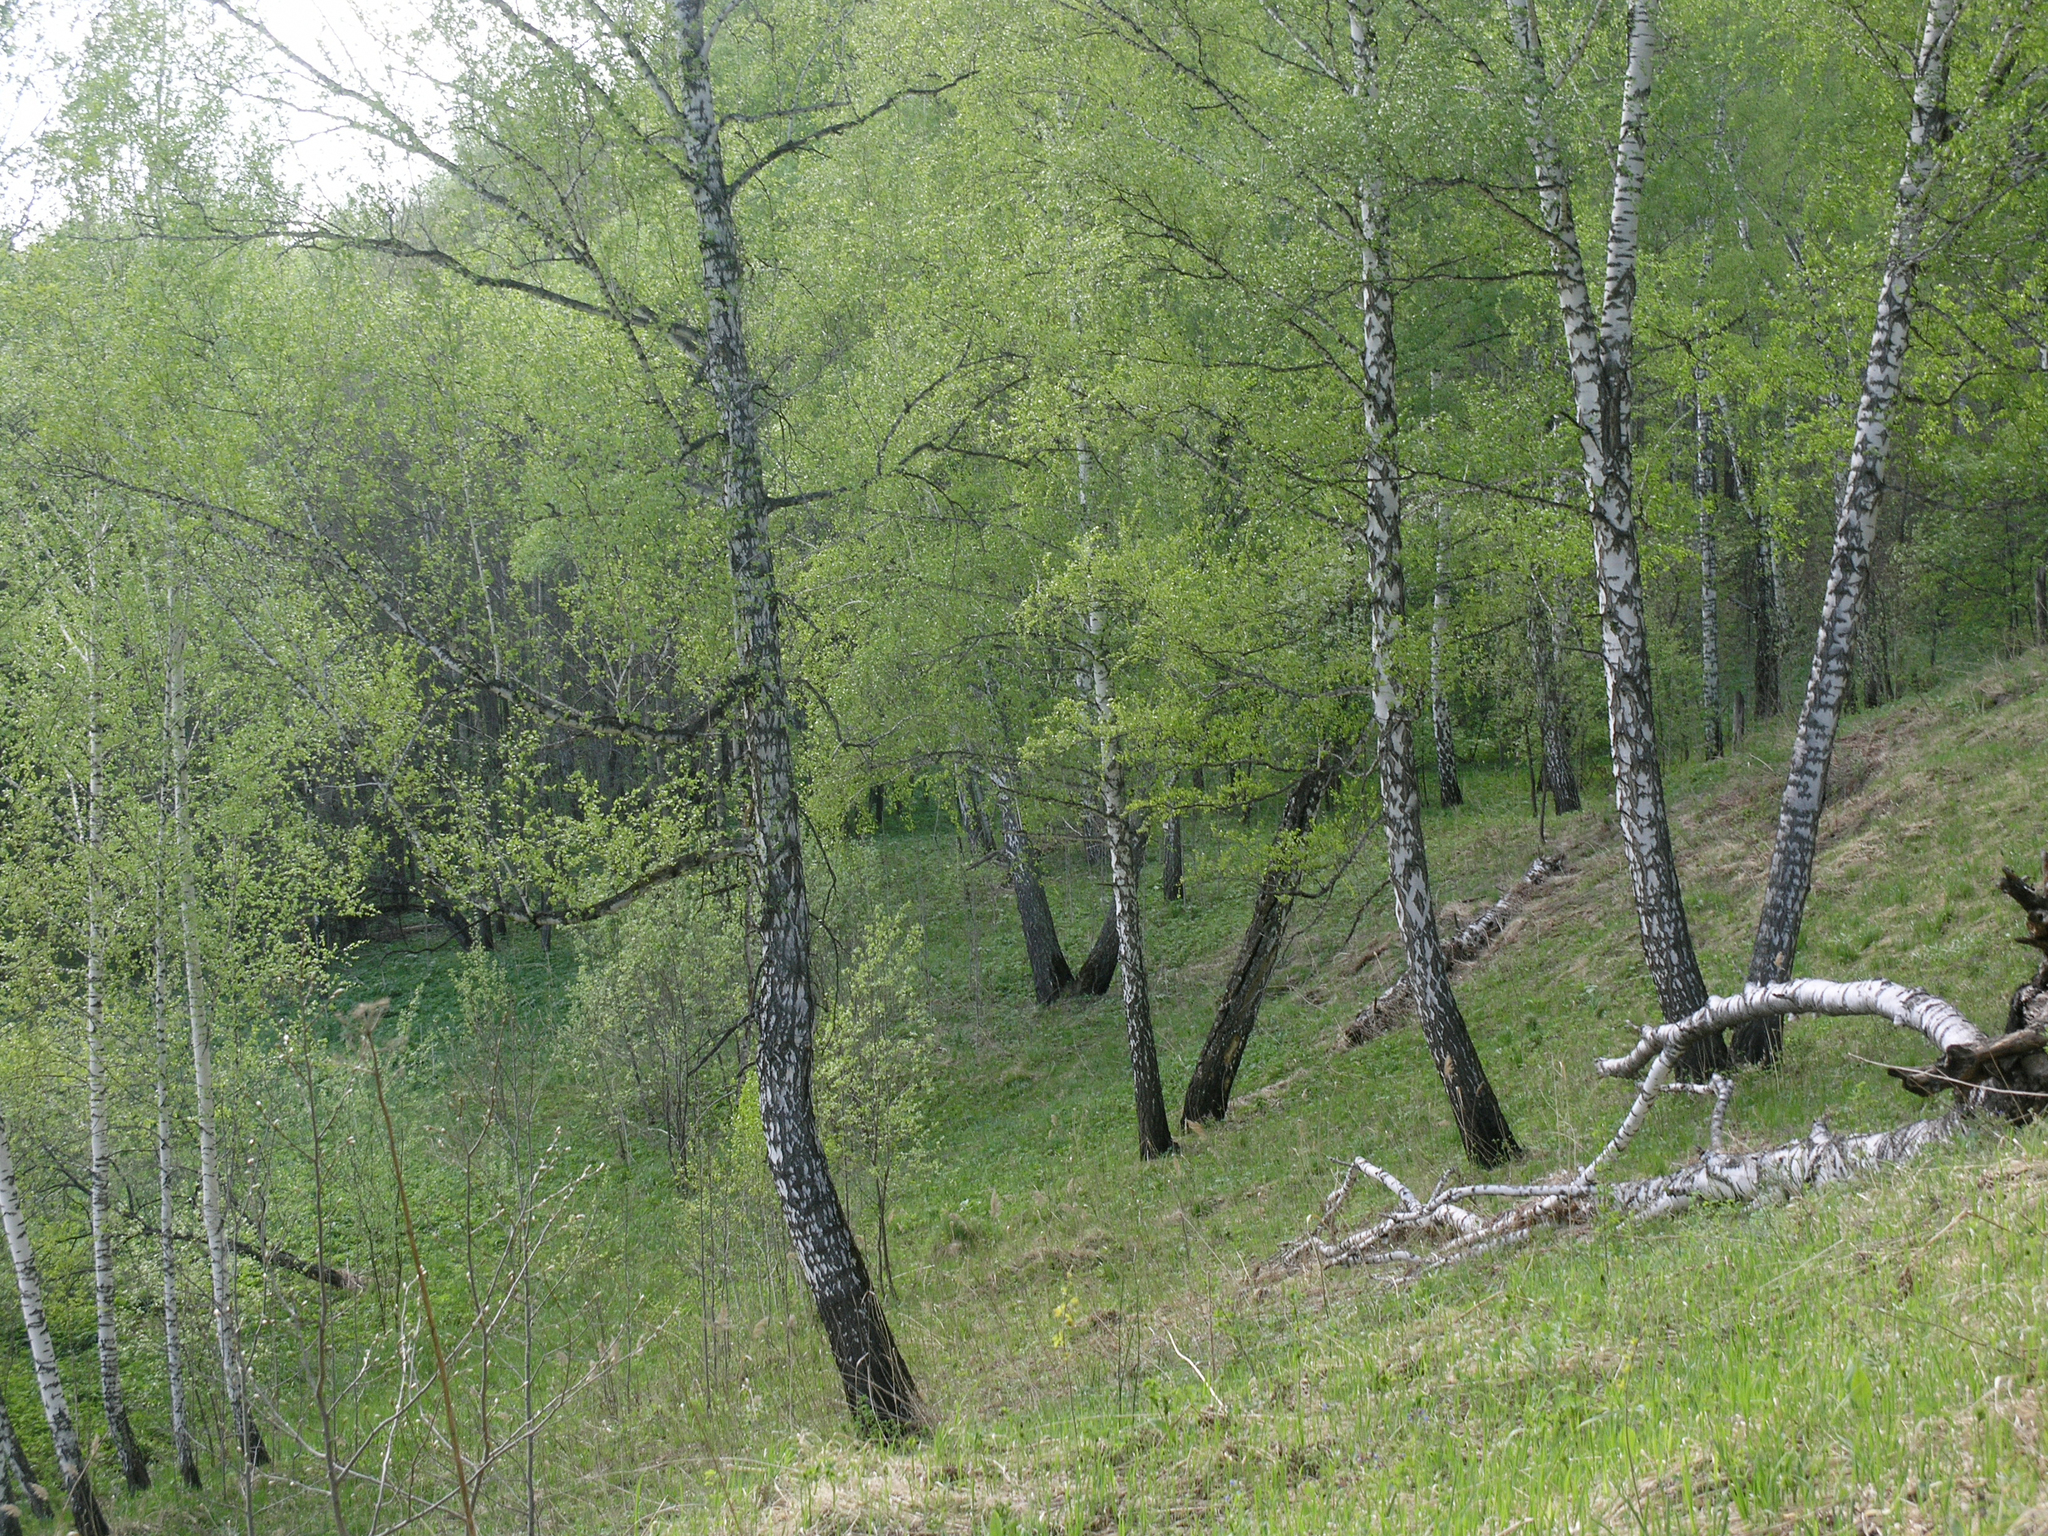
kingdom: Plantae
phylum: Tracheophyta
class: Magnoliopsida
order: Fagales
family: Betulaceae
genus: Betula
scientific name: Betula pendula
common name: Silver birch
